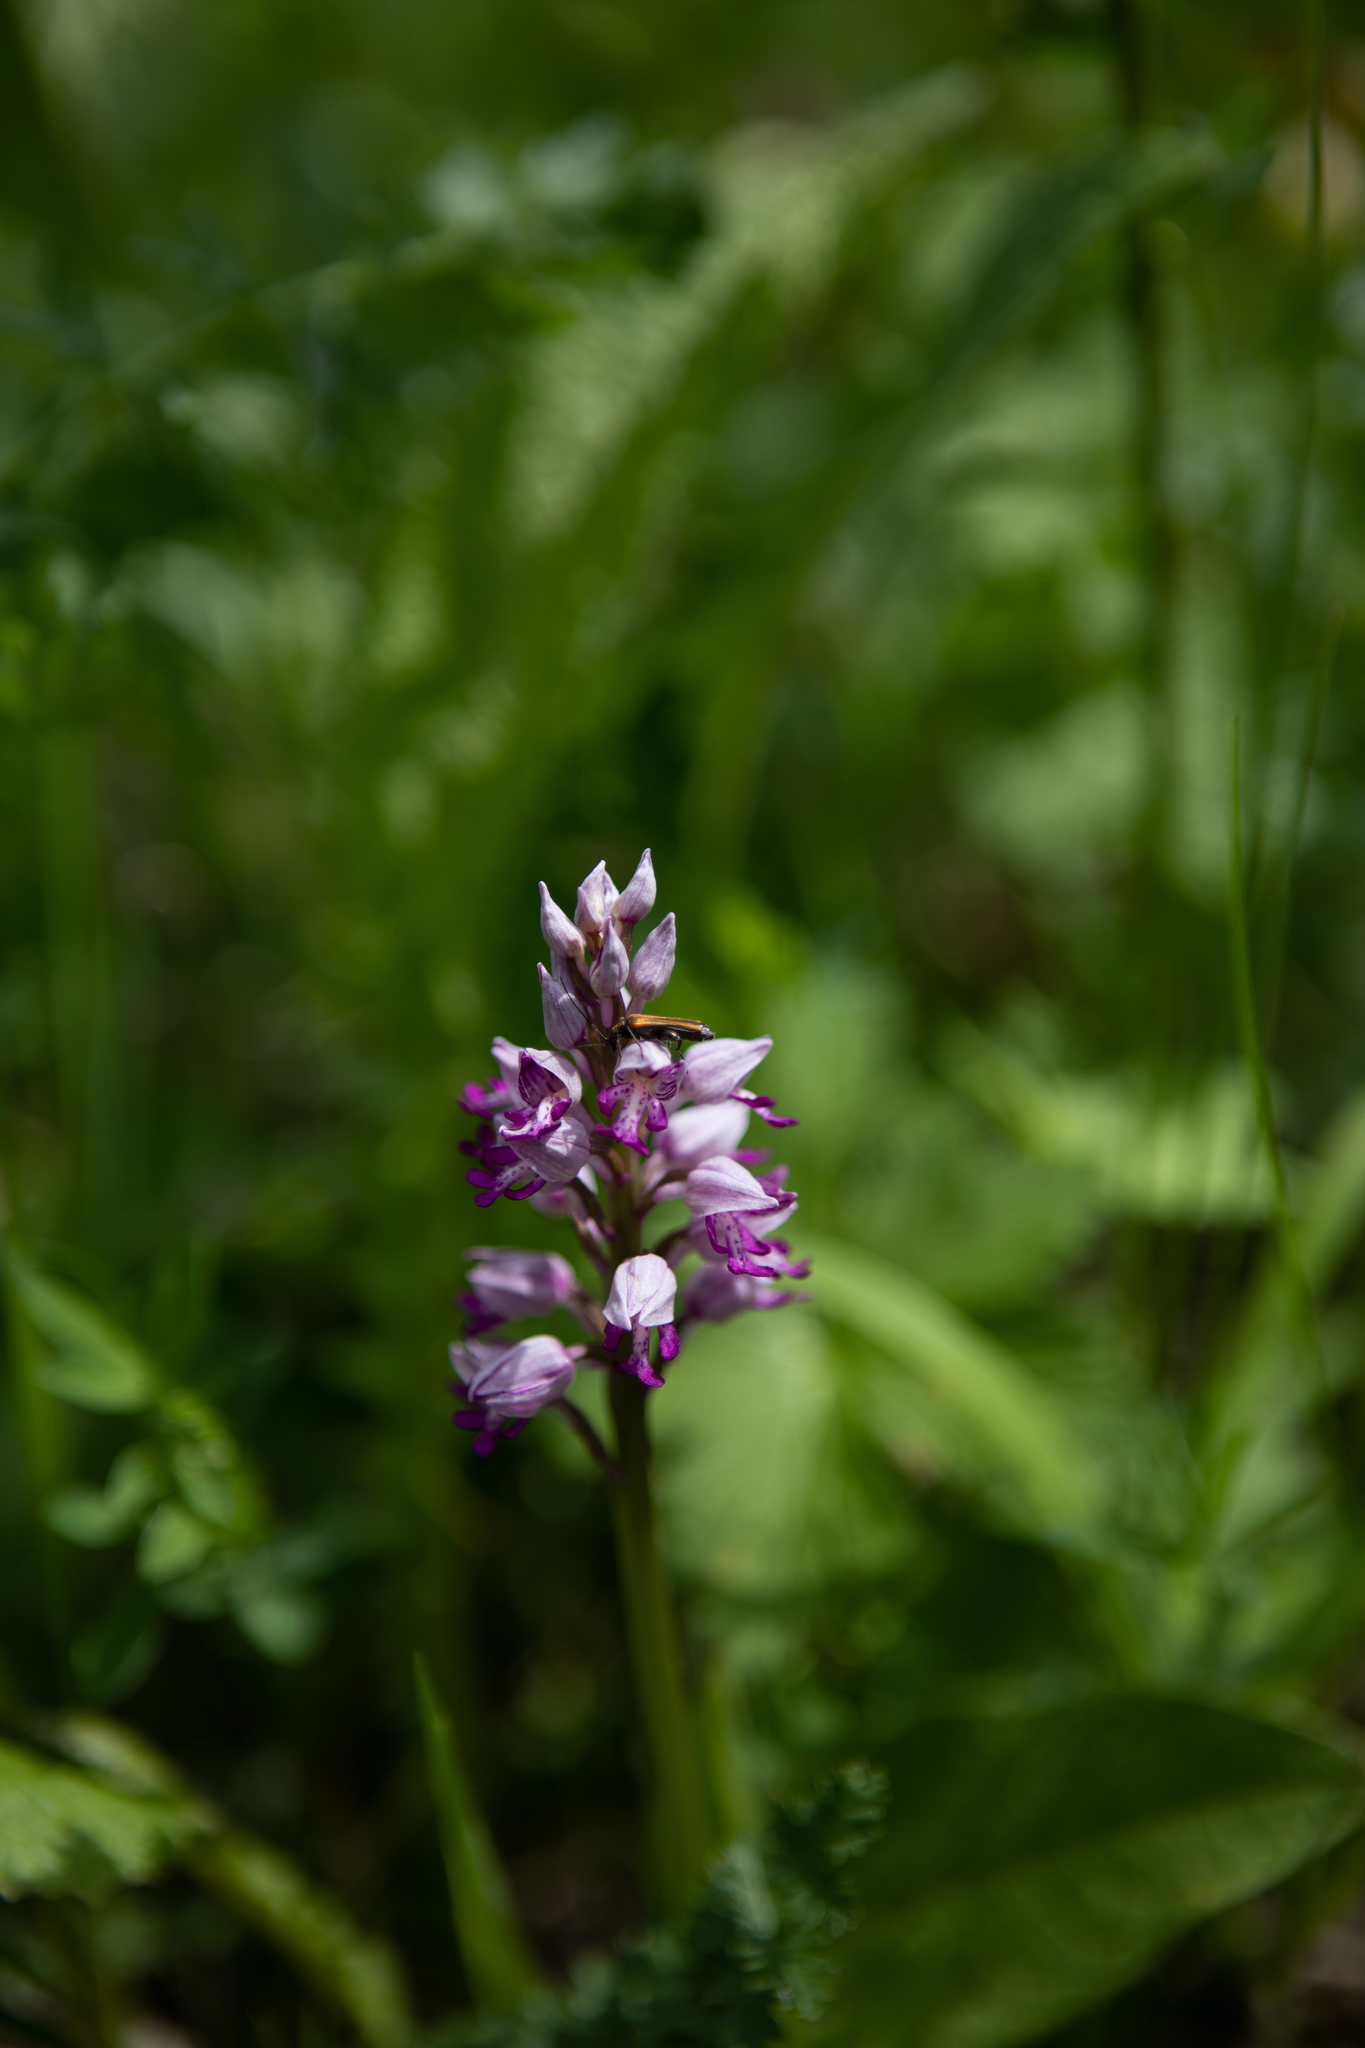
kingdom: Plantae
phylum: Tracheophyta
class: Liliopsida
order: Asparagales
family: Orchidaceae
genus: Orchis
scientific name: Orchis militaris
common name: Military orchid
